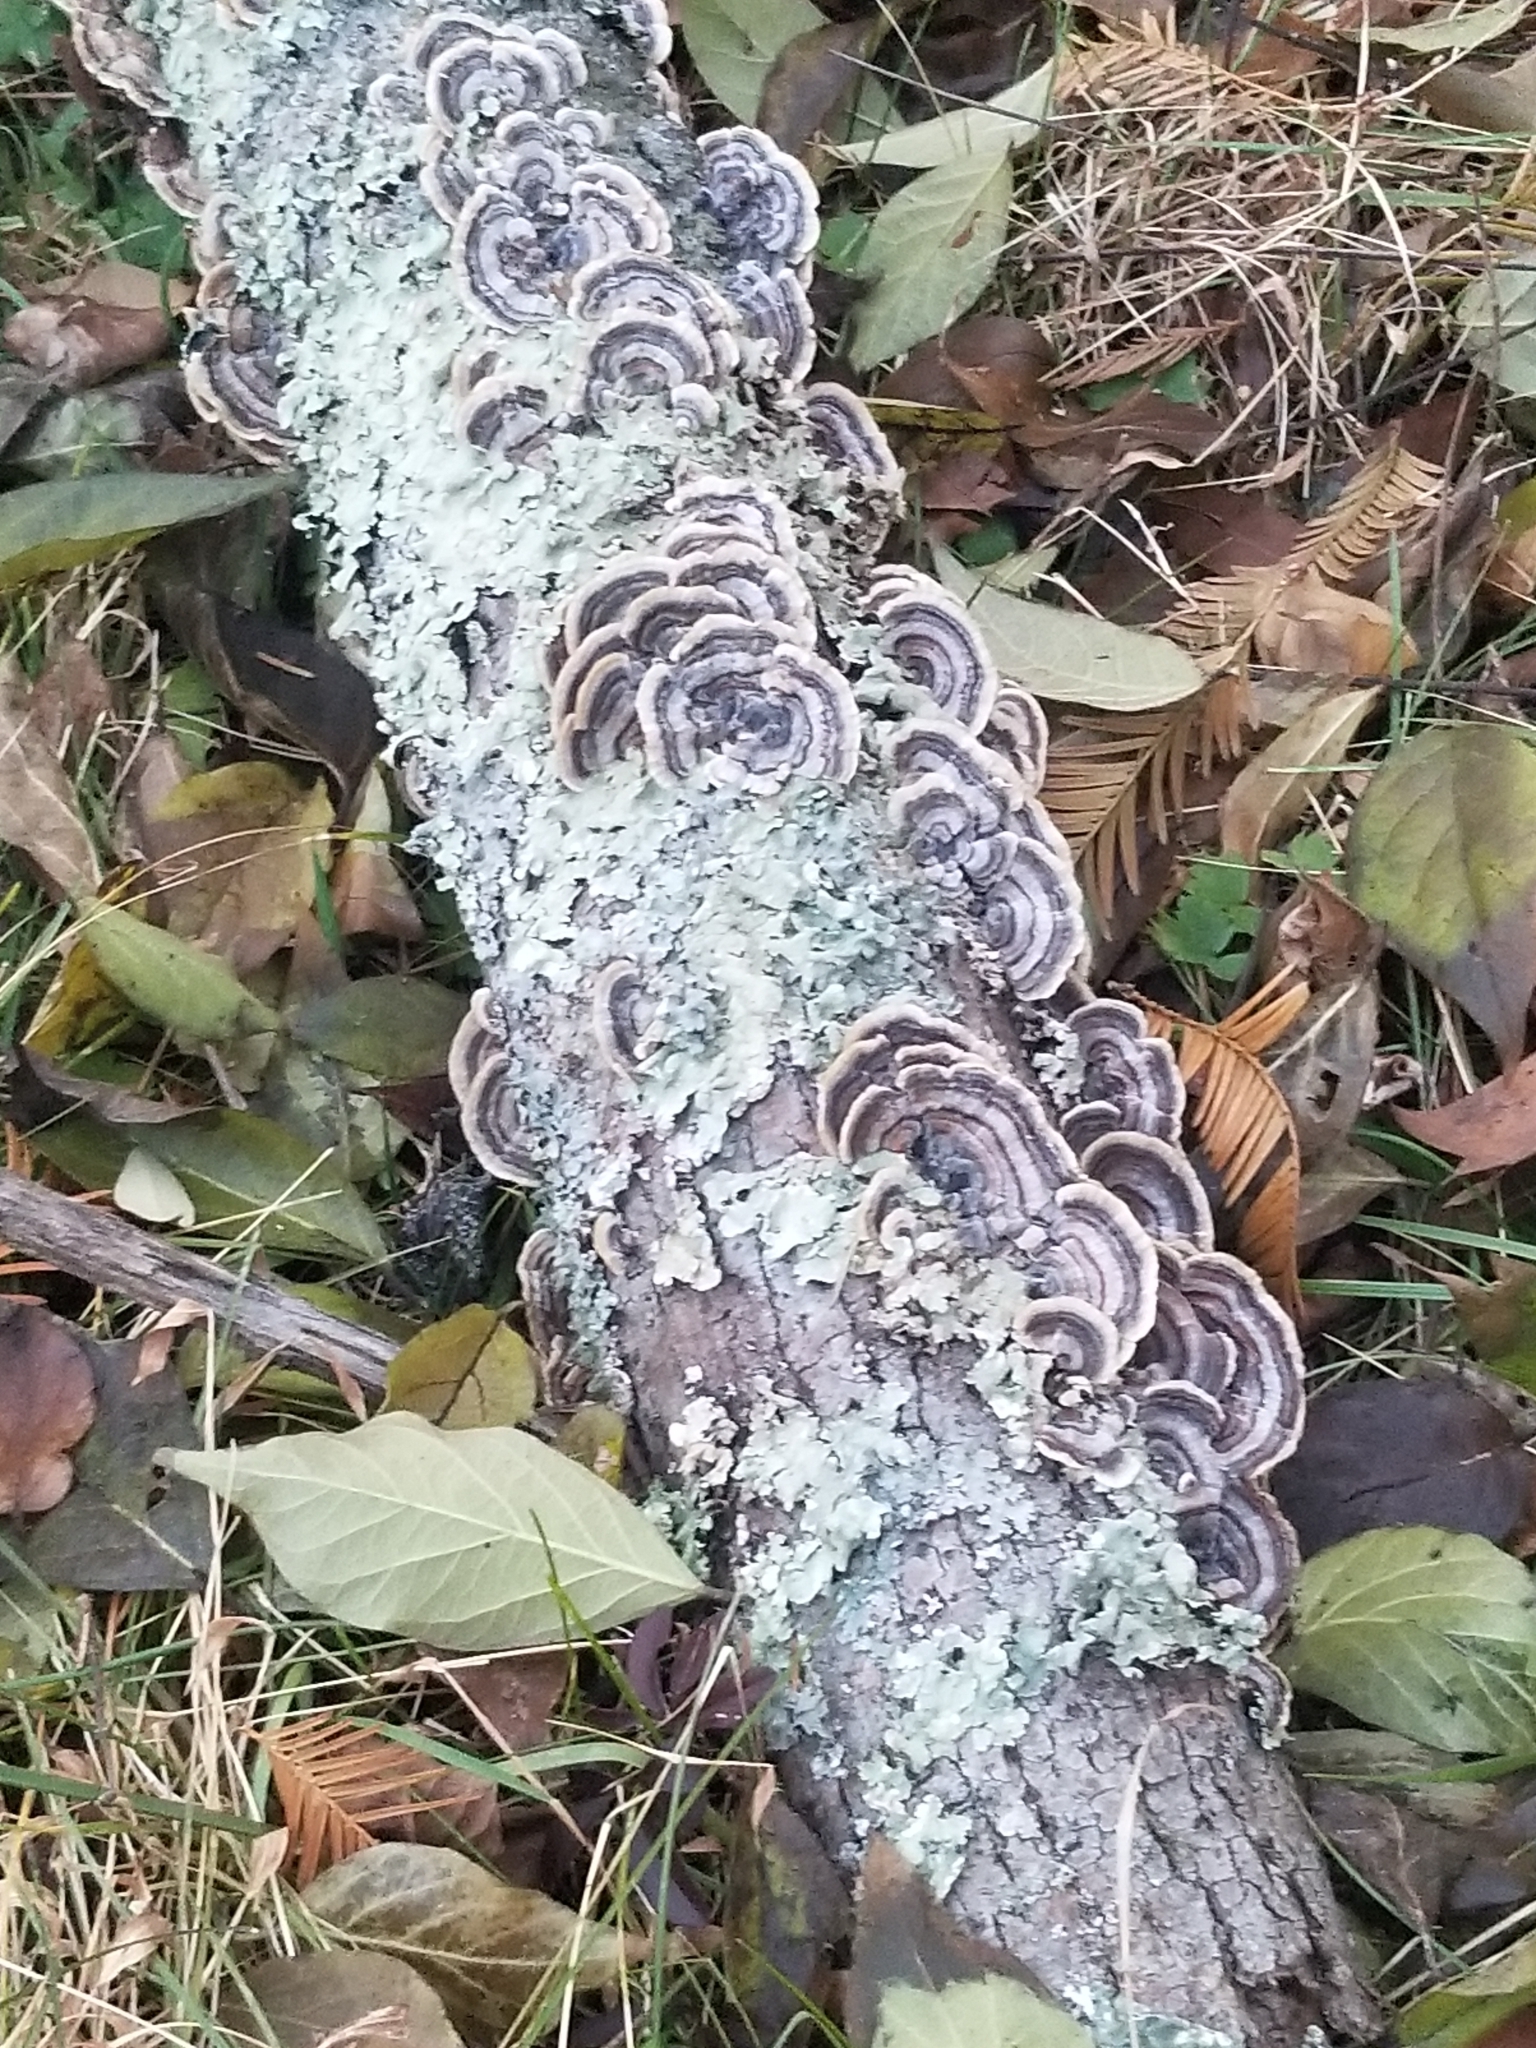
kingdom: Fungi
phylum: Basidiomycota
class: Agaricomycetes
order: Polyporales
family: Polyporaceae
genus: Trametes
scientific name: Trametes versicolor
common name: Turkeytail
